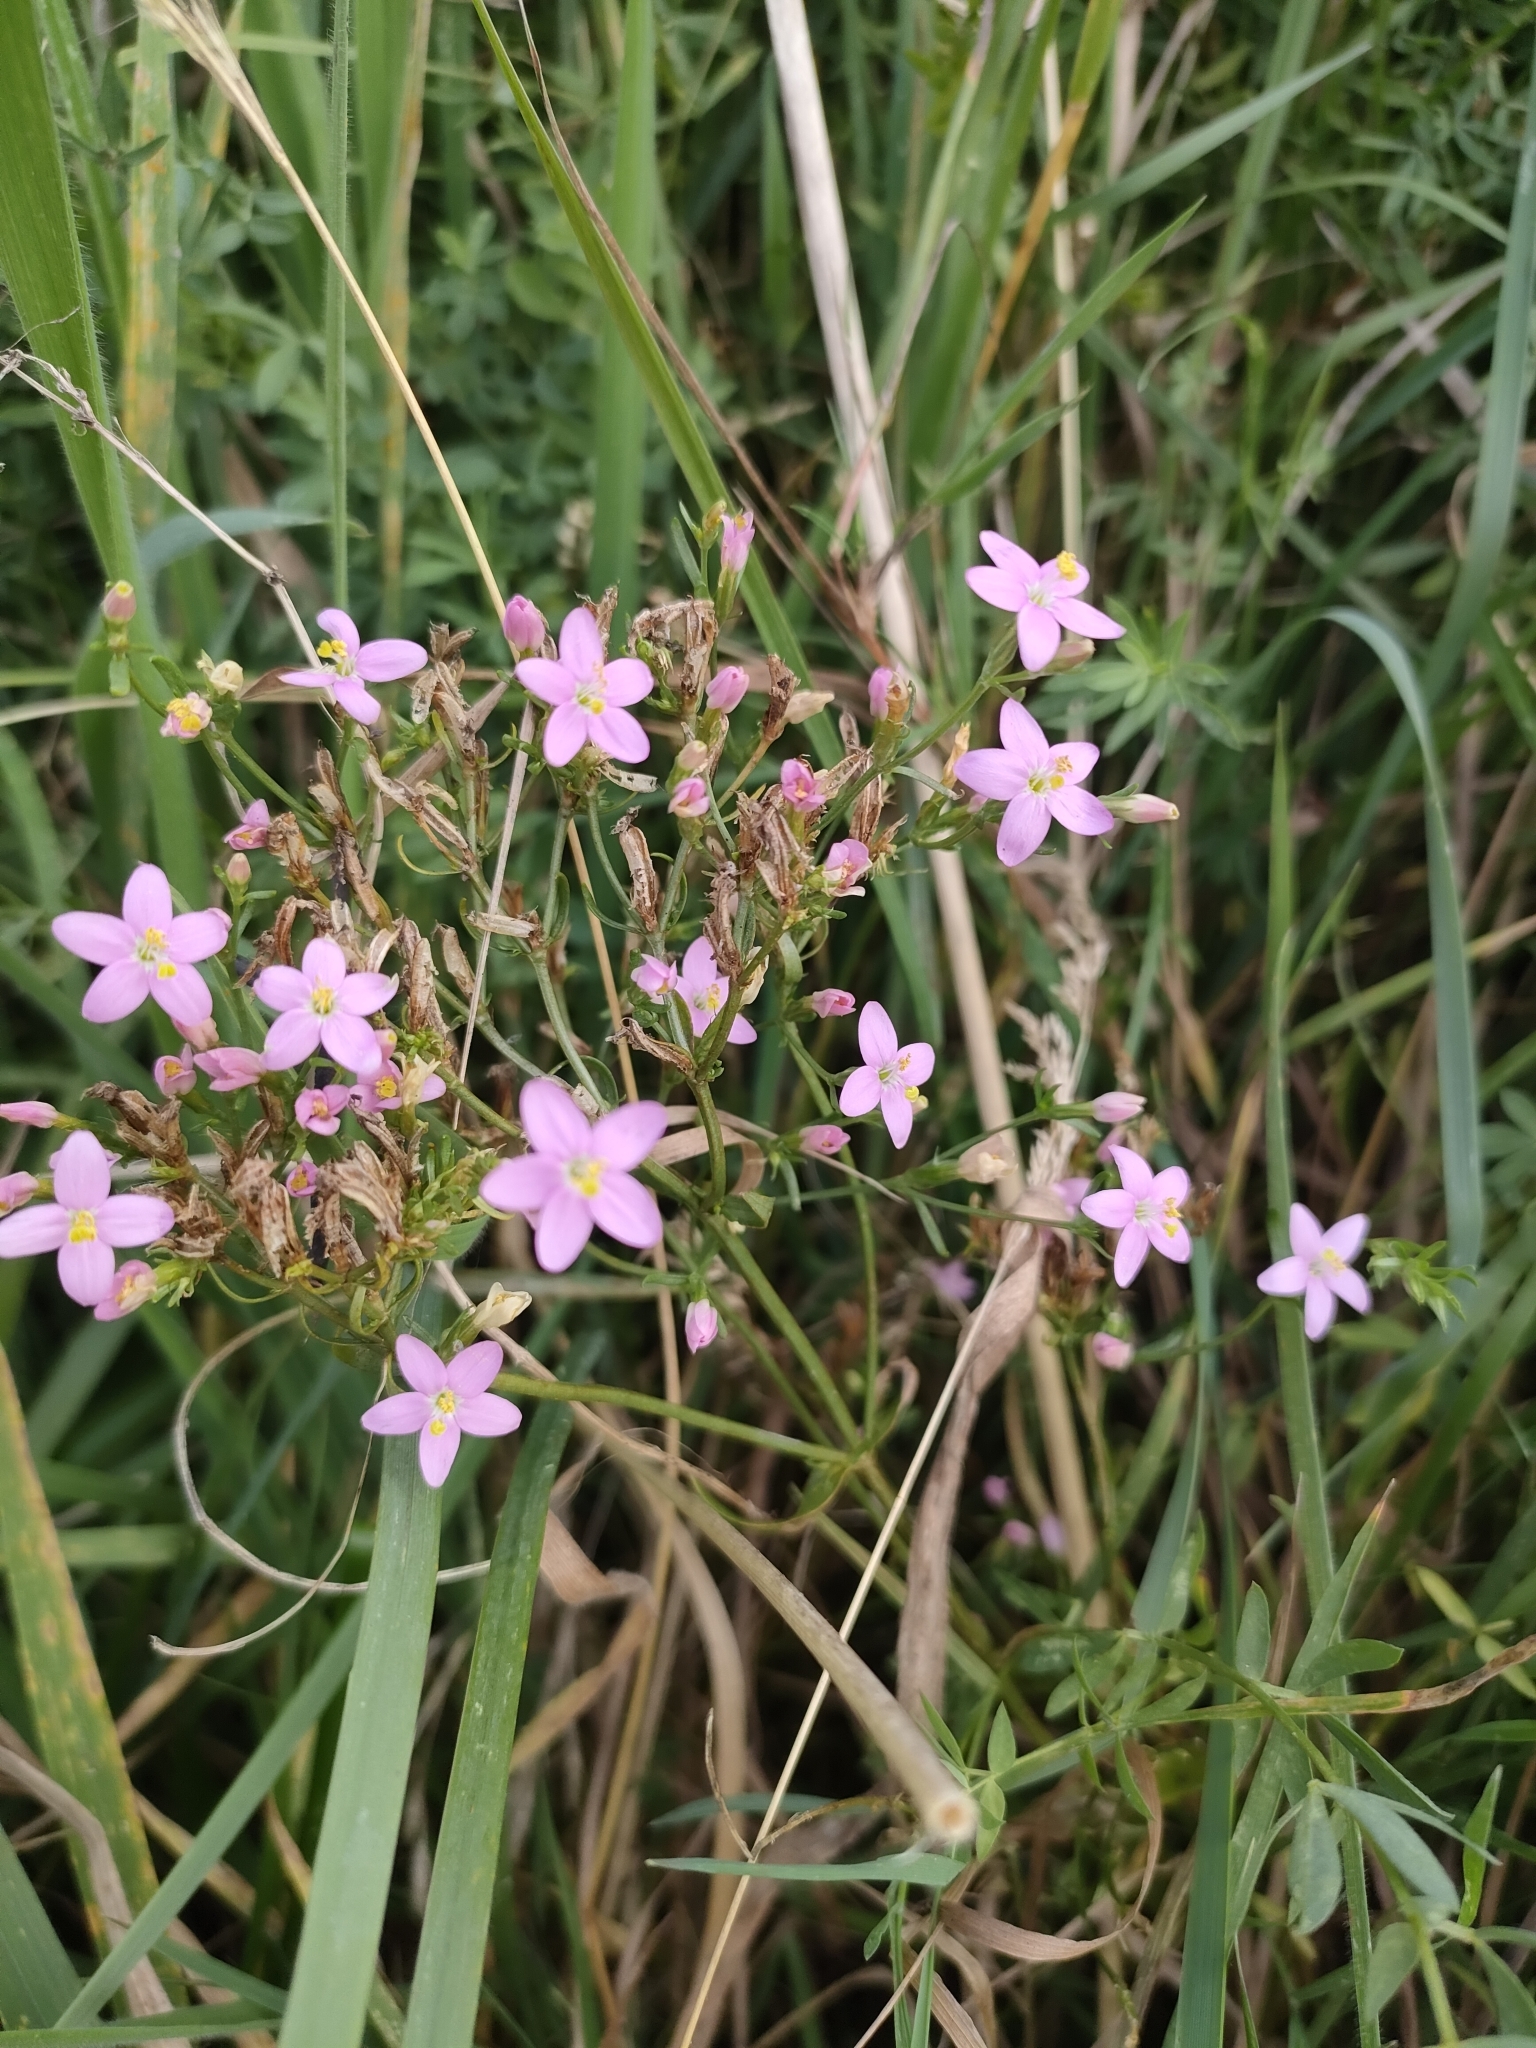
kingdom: Plantae
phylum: Tracheophyta
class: Magnoliopsida
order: Gentianales
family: Gentianaceae
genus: Centaurium
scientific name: Centaurium erythraea
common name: Common centaury
